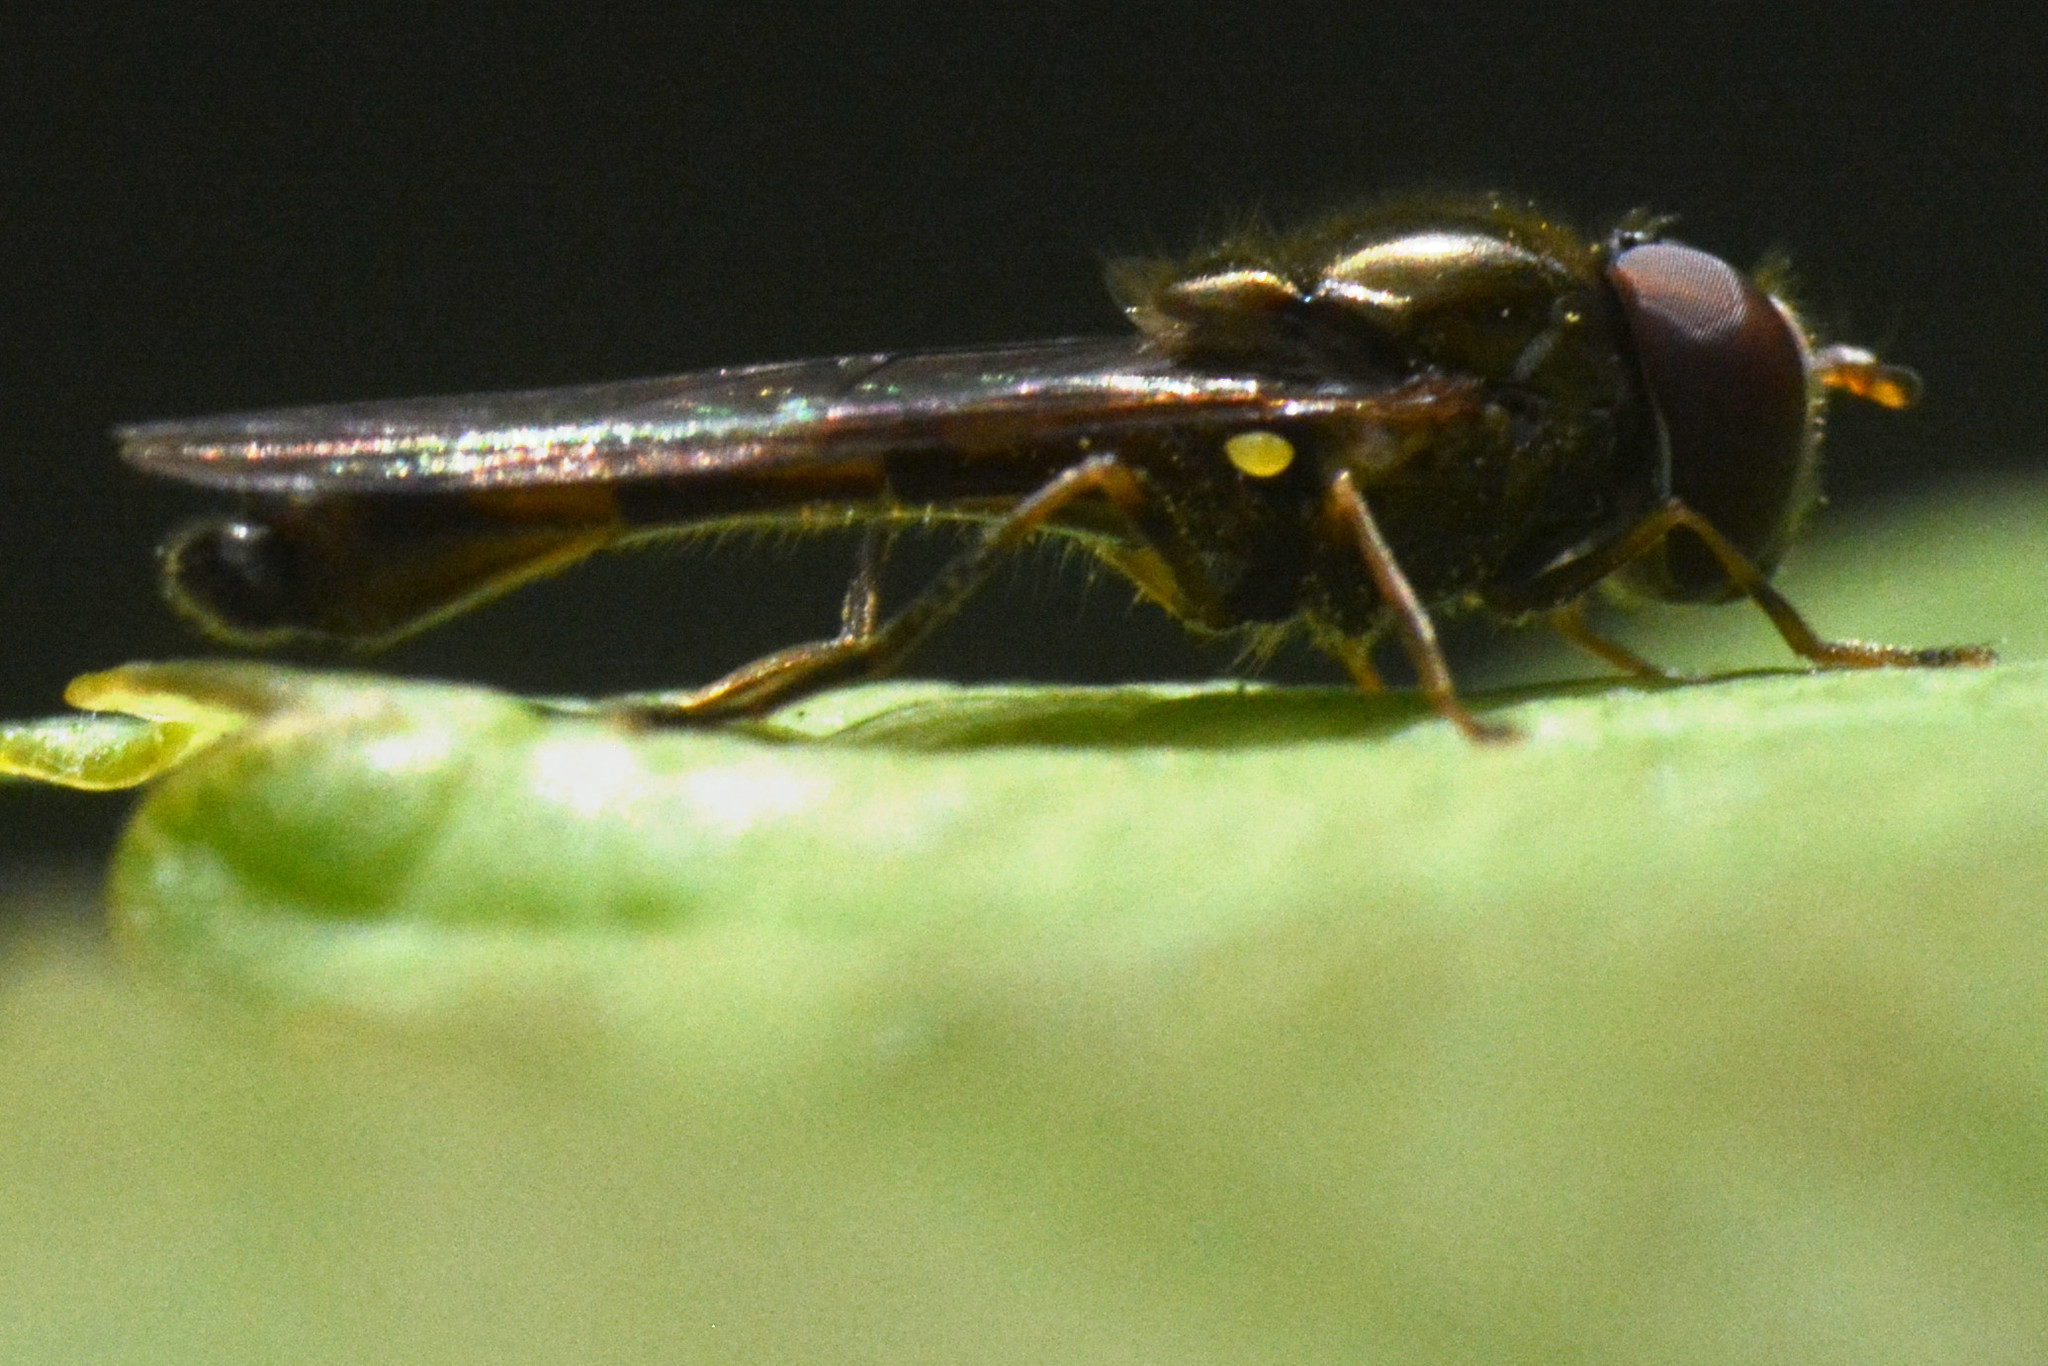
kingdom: Animalia
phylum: Arthropoda
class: Insecta
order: Diptera
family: Syrphidae
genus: Melanostoma
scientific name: Melanostoma scalare
